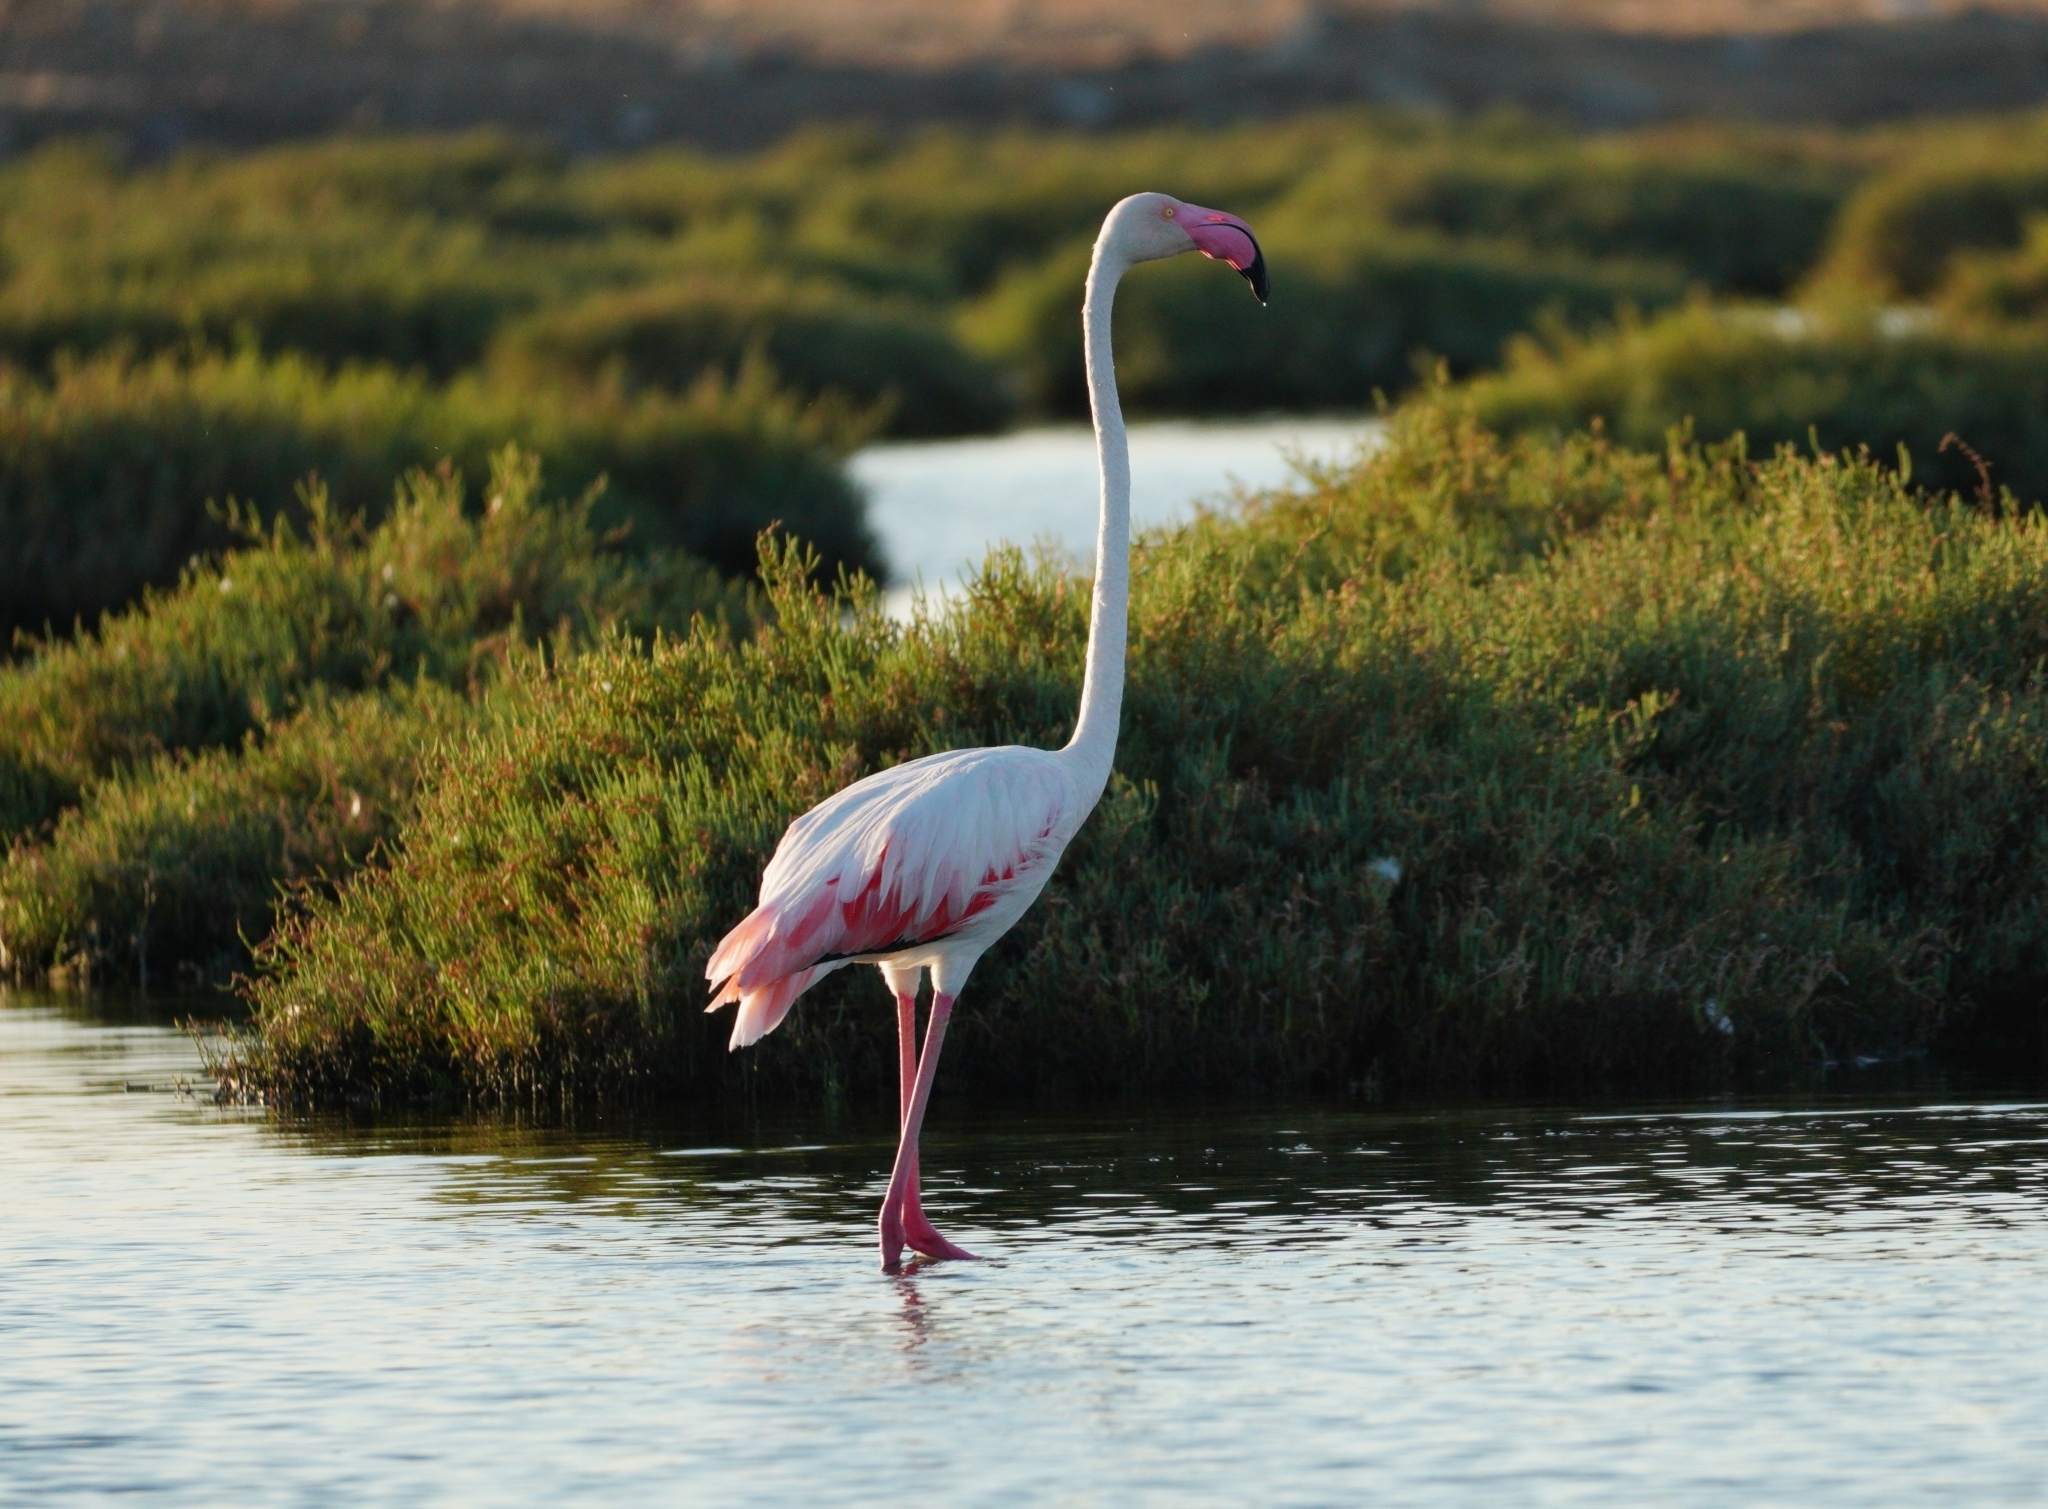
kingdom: Animalia
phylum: Chordata
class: Aves
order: Phoenicopteriformes
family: Phoenicopteridae
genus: Phoenicopterus
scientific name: Phoenicopterus roseus
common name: Greater flamingo
